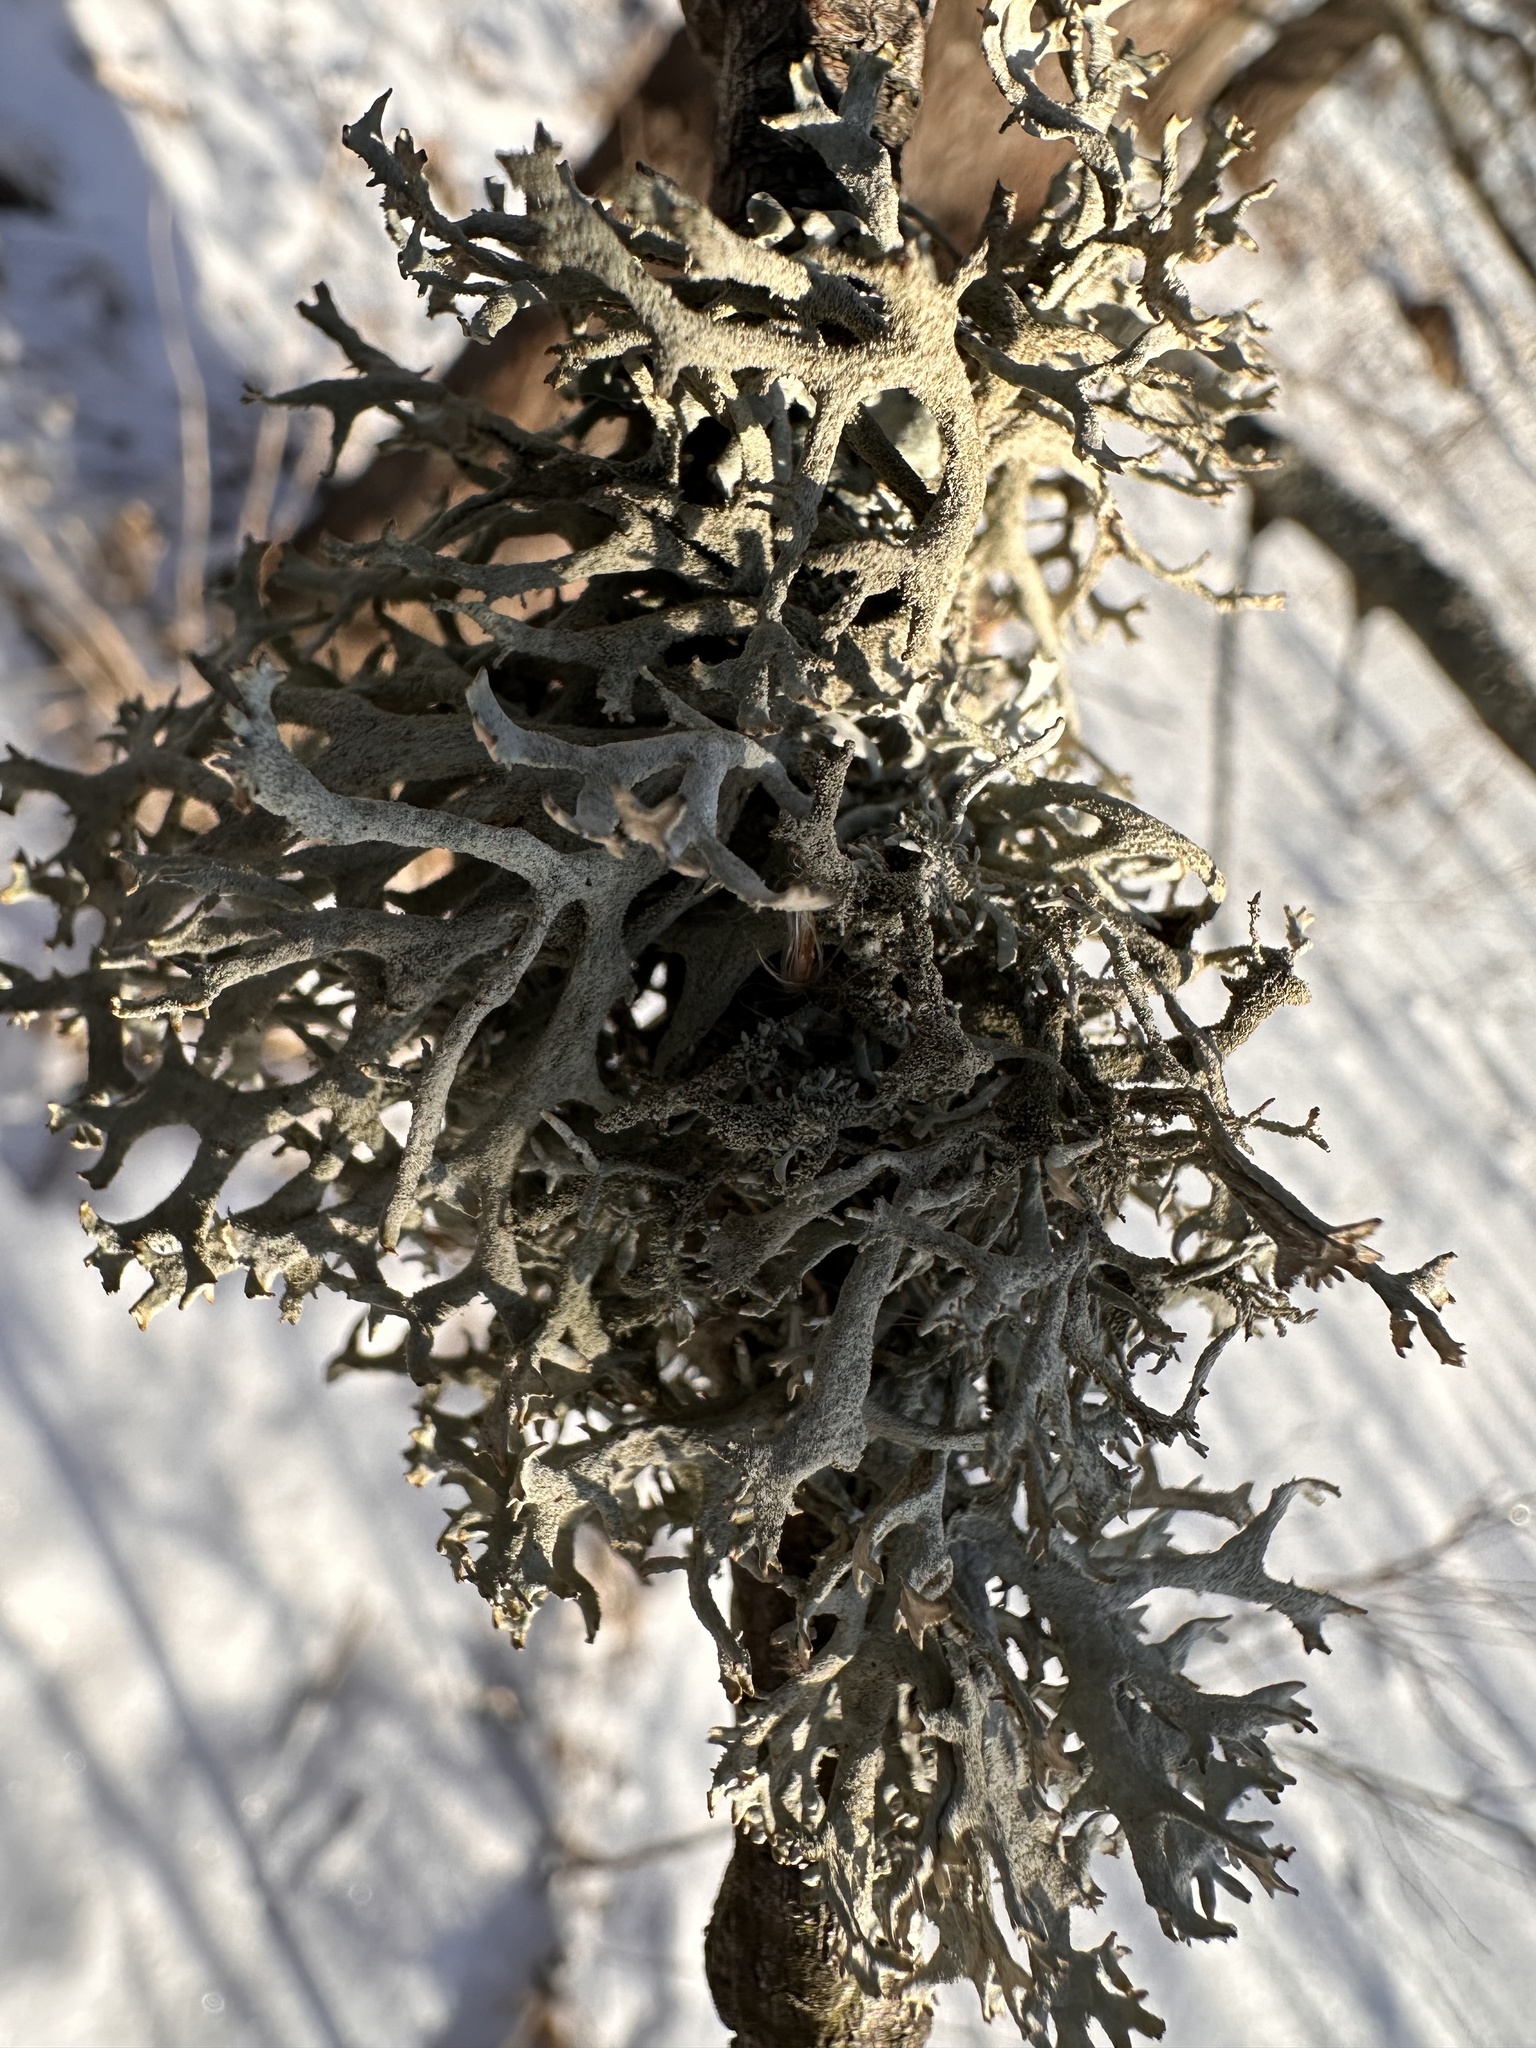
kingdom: Fungi
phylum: Ascomycota
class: Lecanoromycetes
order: Lecanorales
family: Parmeliaceae
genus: Pseudevernia
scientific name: Pseudevernia furfuracea
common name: Tree moss
